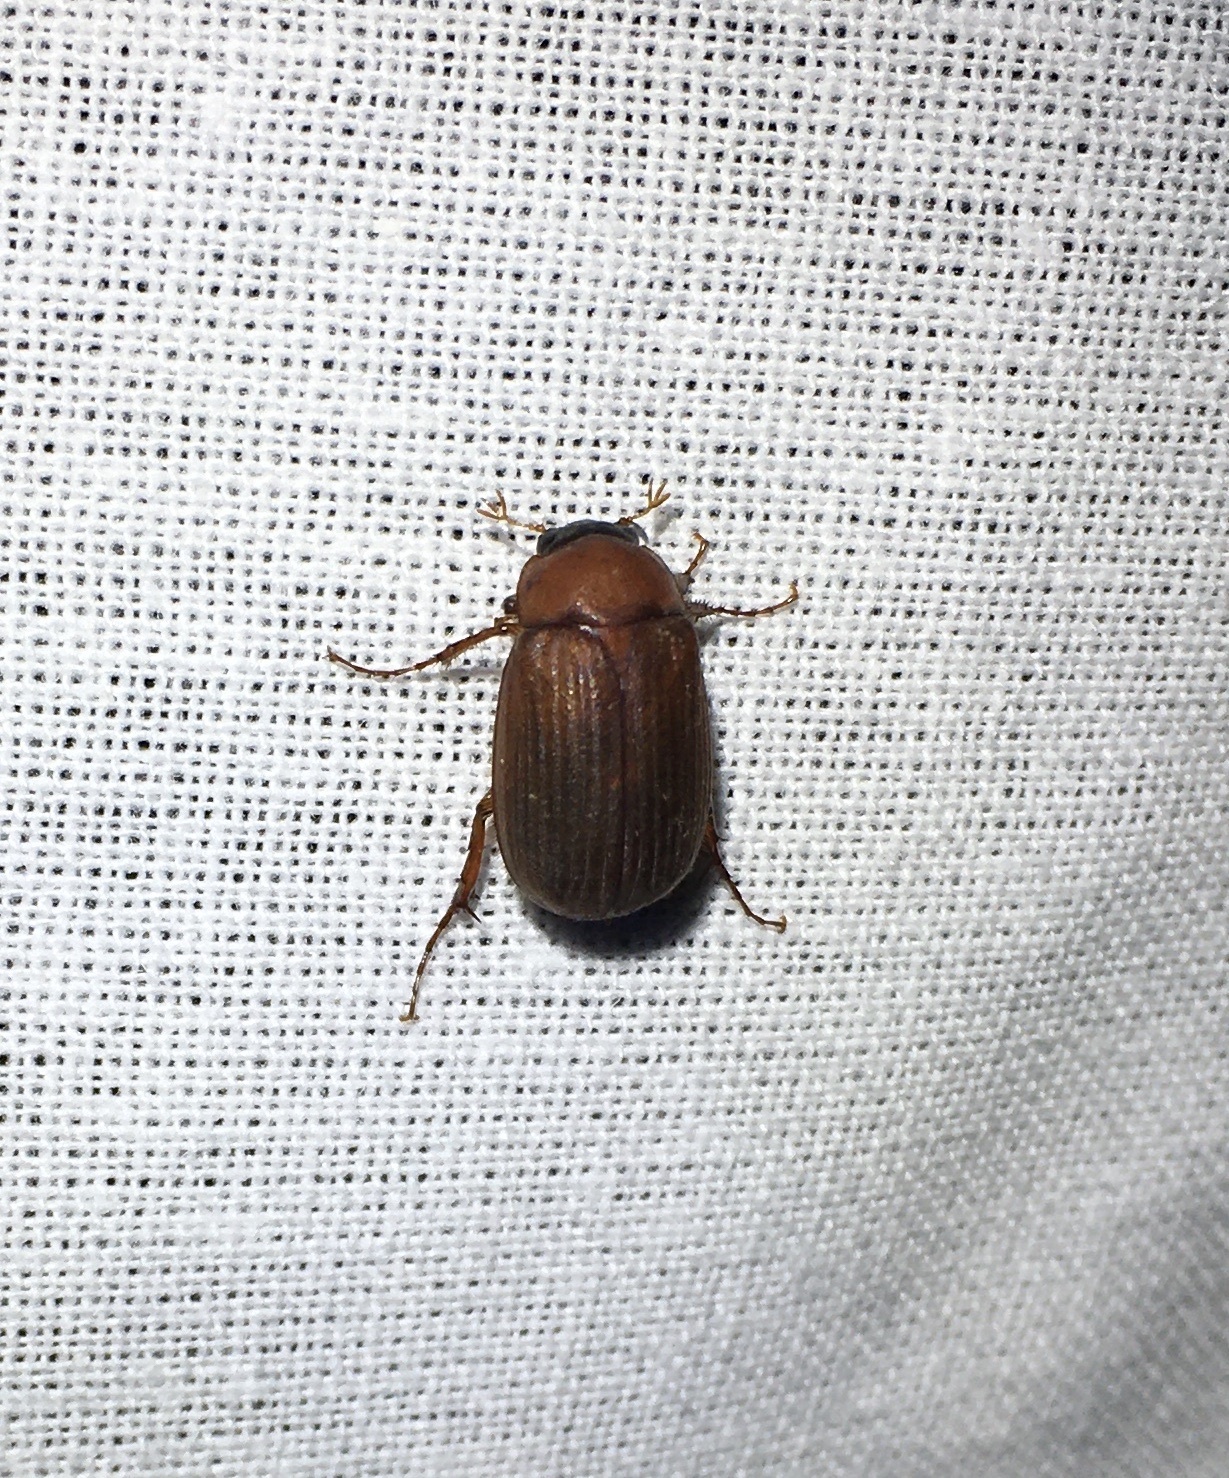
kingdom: Animalia
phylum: Arthropoda
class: Insecta
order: Coleoptera
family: Scarabaeidae
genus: Serica
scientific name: Serica brunnea
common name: Brown chafer
